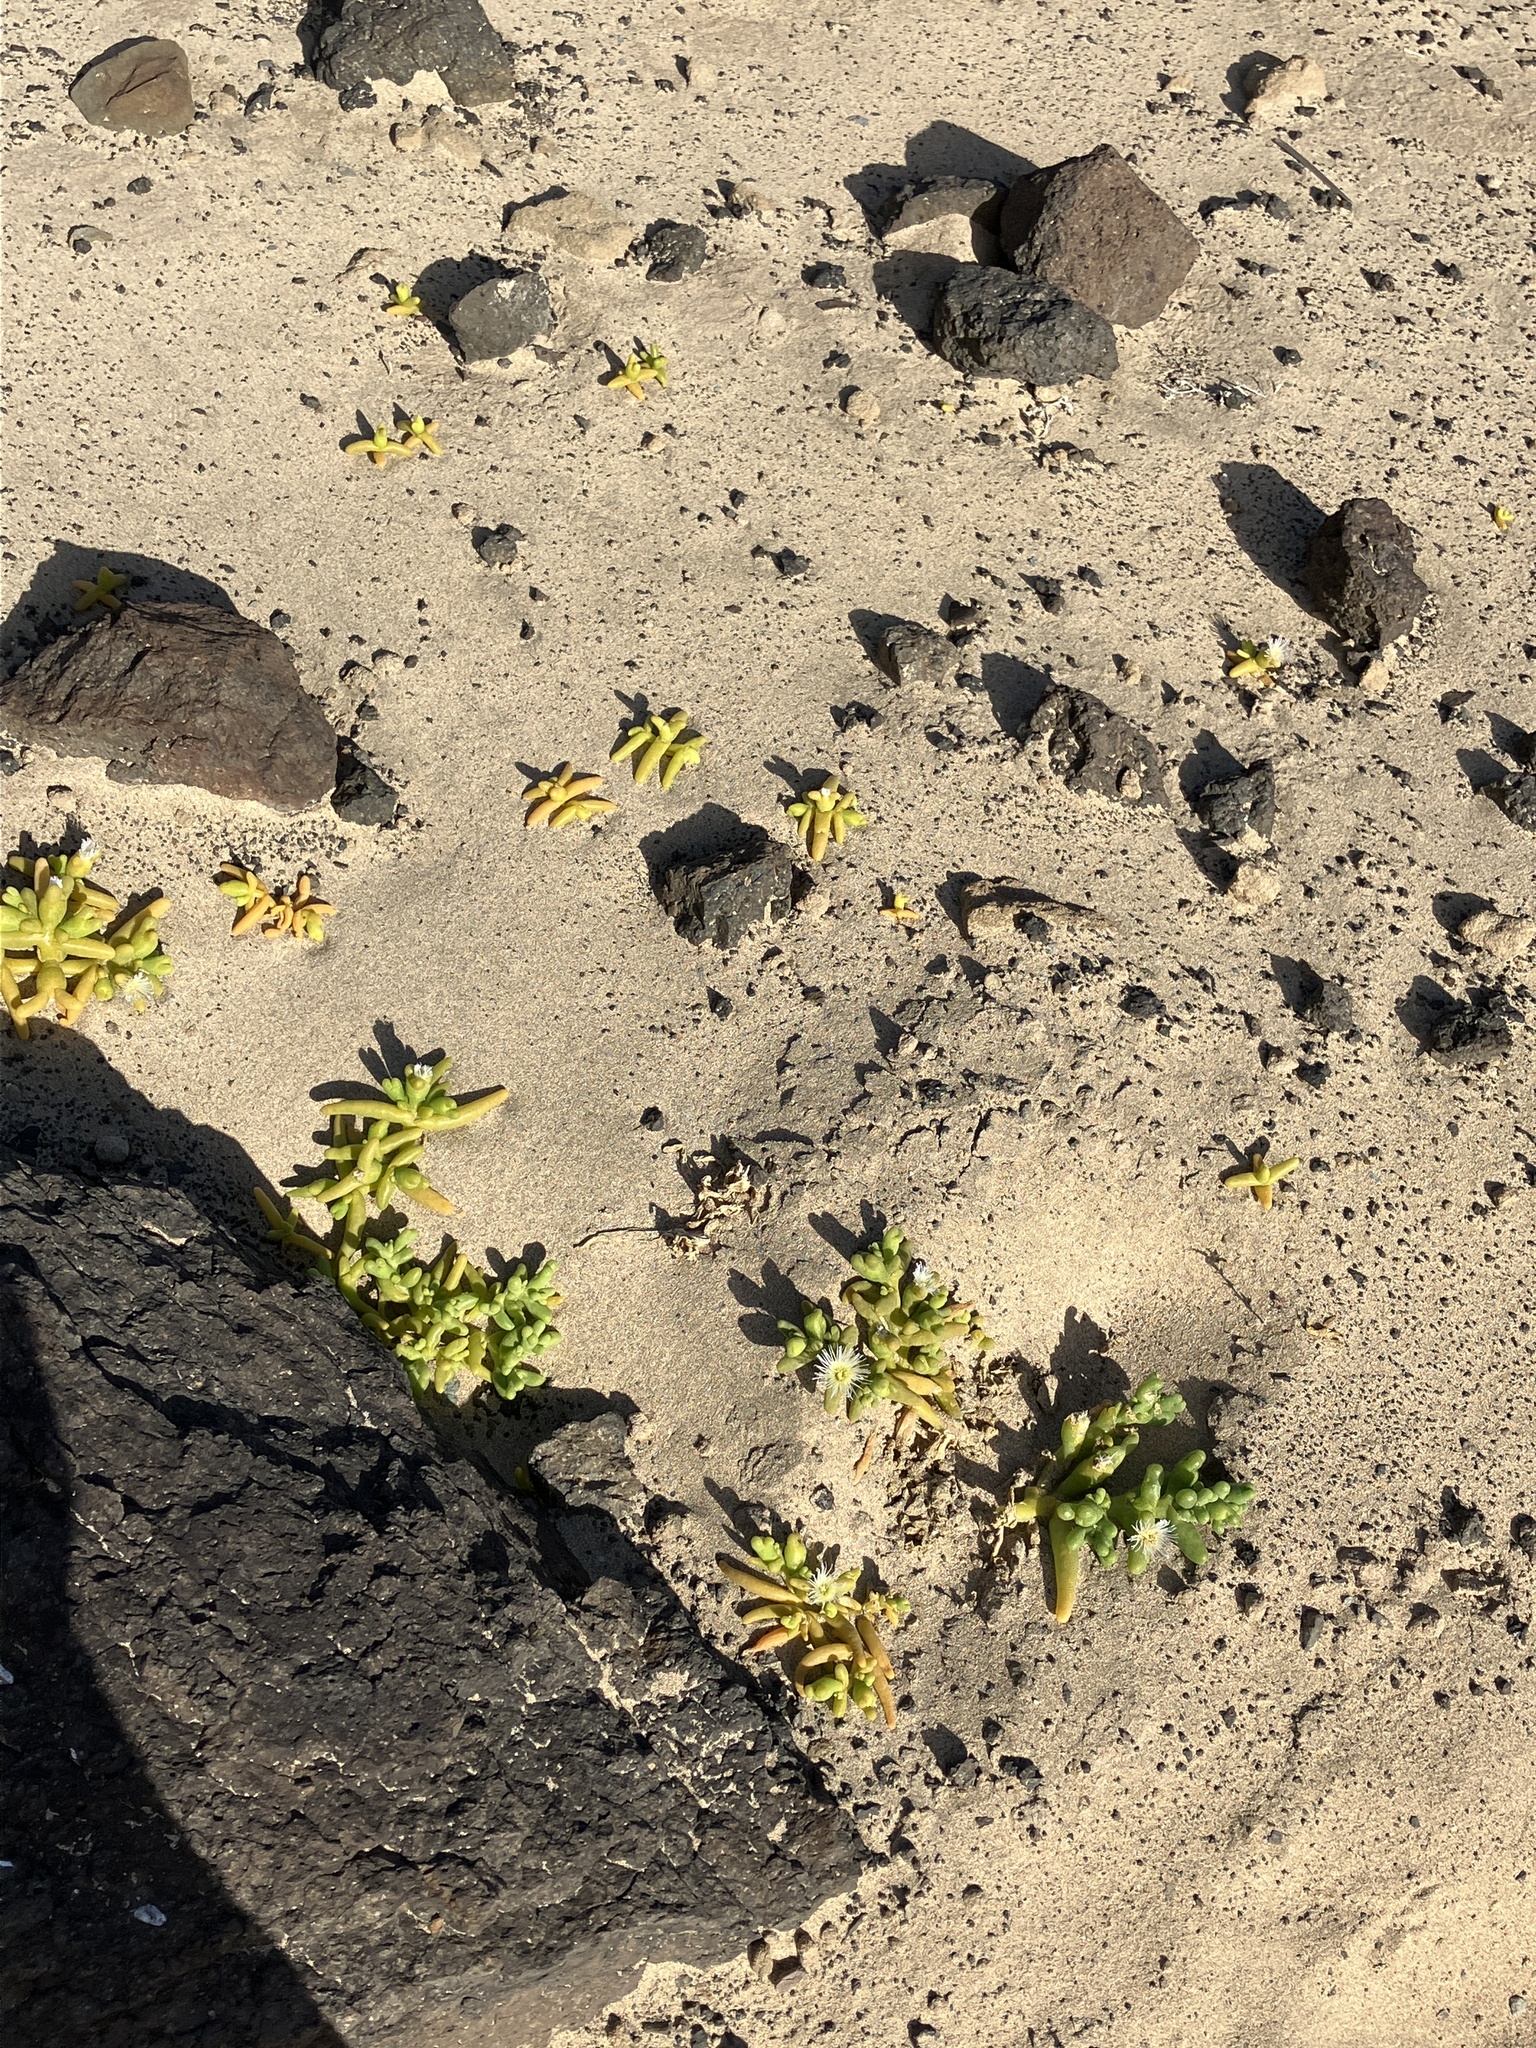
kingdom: Plantae
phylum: Tracheophyta
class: Magnoliopsida
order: Caryophyllales
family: Aizoaceae
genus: Mesembryanthemum
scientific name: Mesembryanthemum cryptanthum
